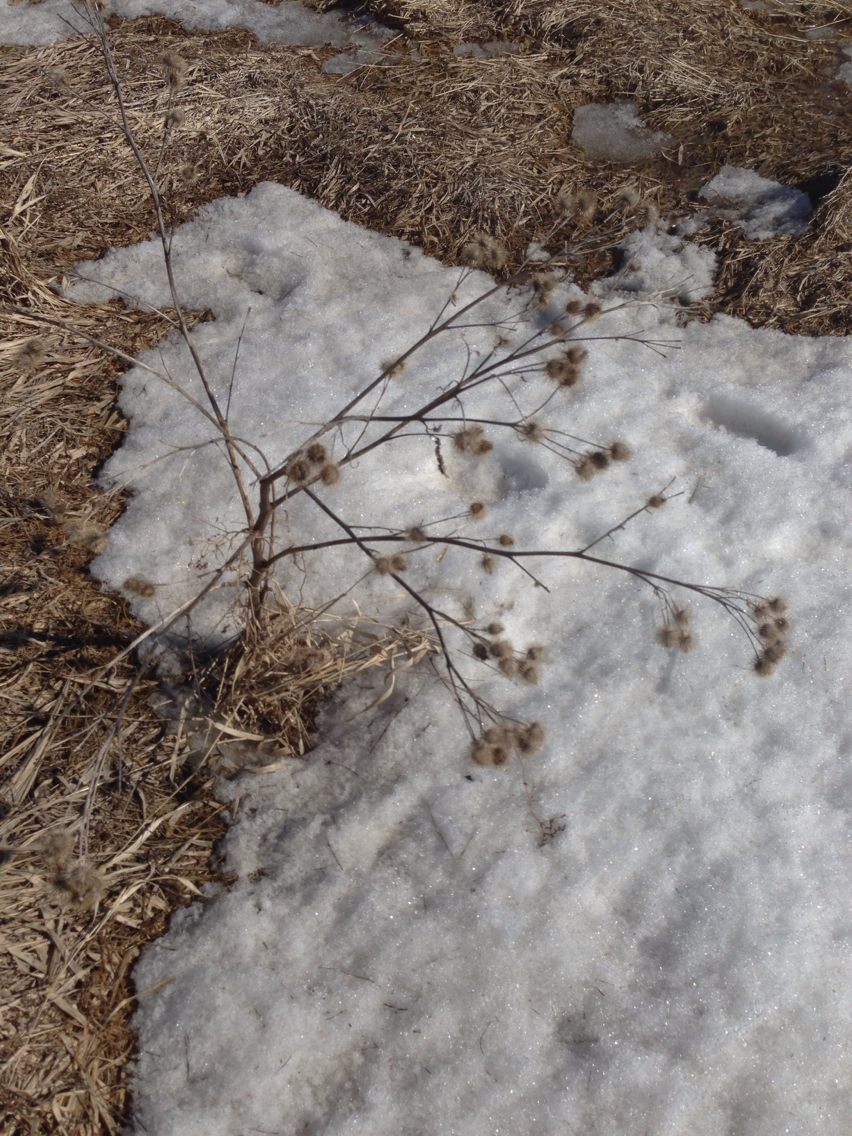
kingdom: Plantae
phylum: Tracheophyta
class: Magnoliopsida
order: Asterales
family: Asteraceae
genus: Arctium
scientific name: Arctium lappa
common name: Greater burdock
